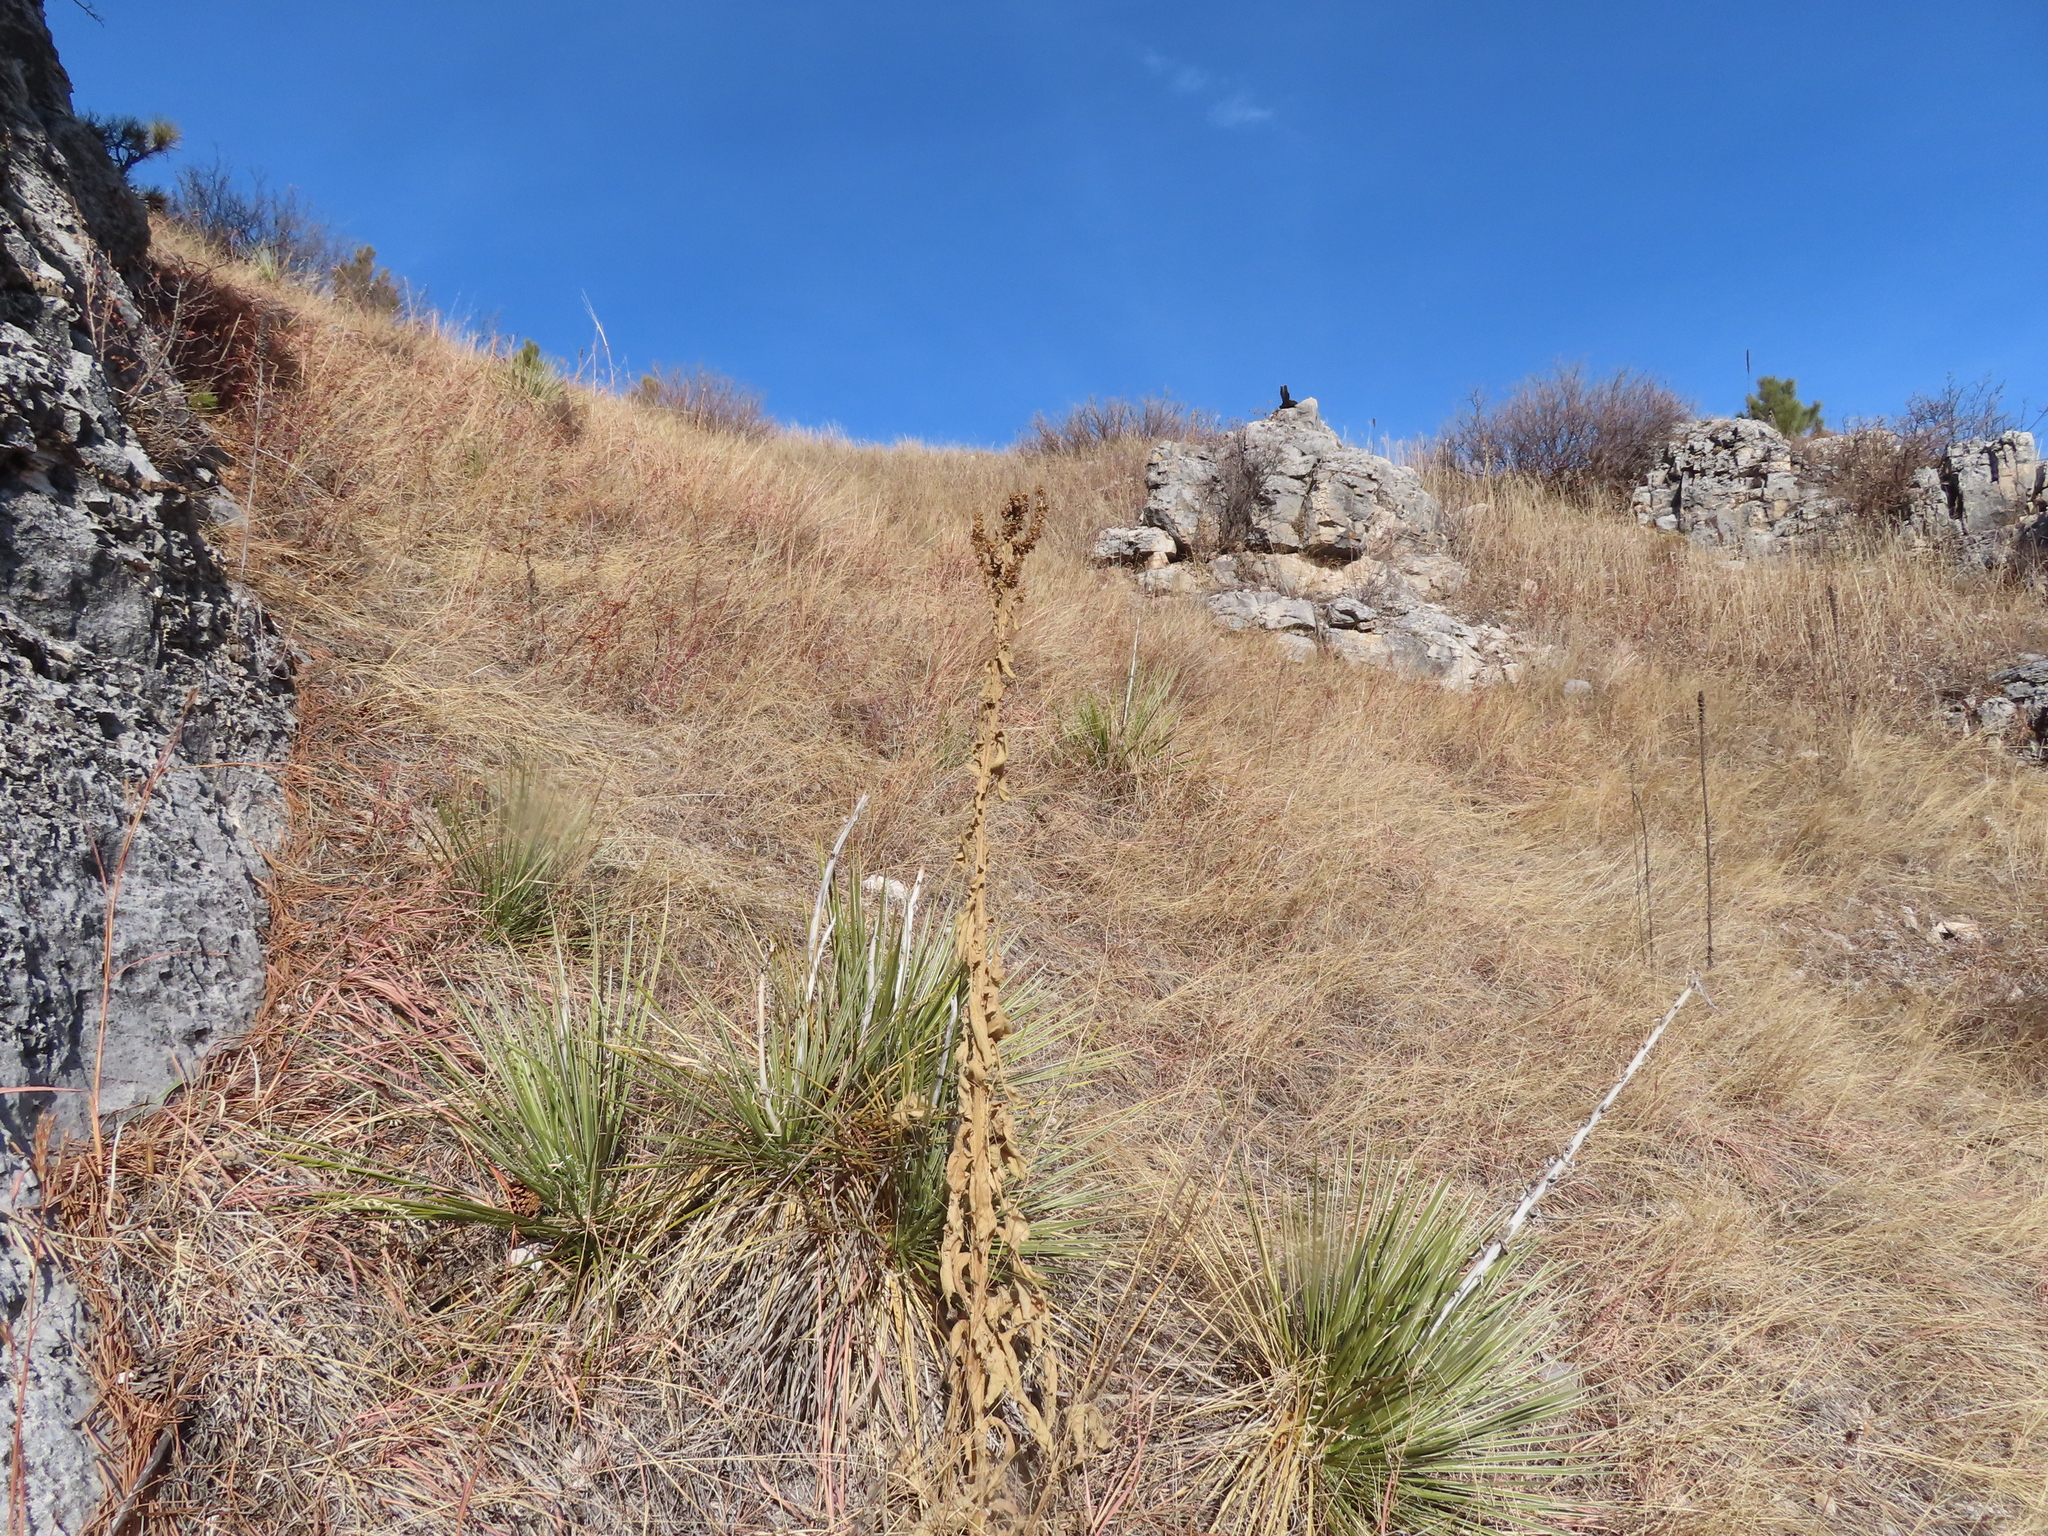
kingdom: Plantae
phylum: Tracheophyta
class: Liliopsida
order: Asparagales
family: Asparagaceae
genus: Yucca
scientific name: Yucca glauca
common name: Great plains yucca
